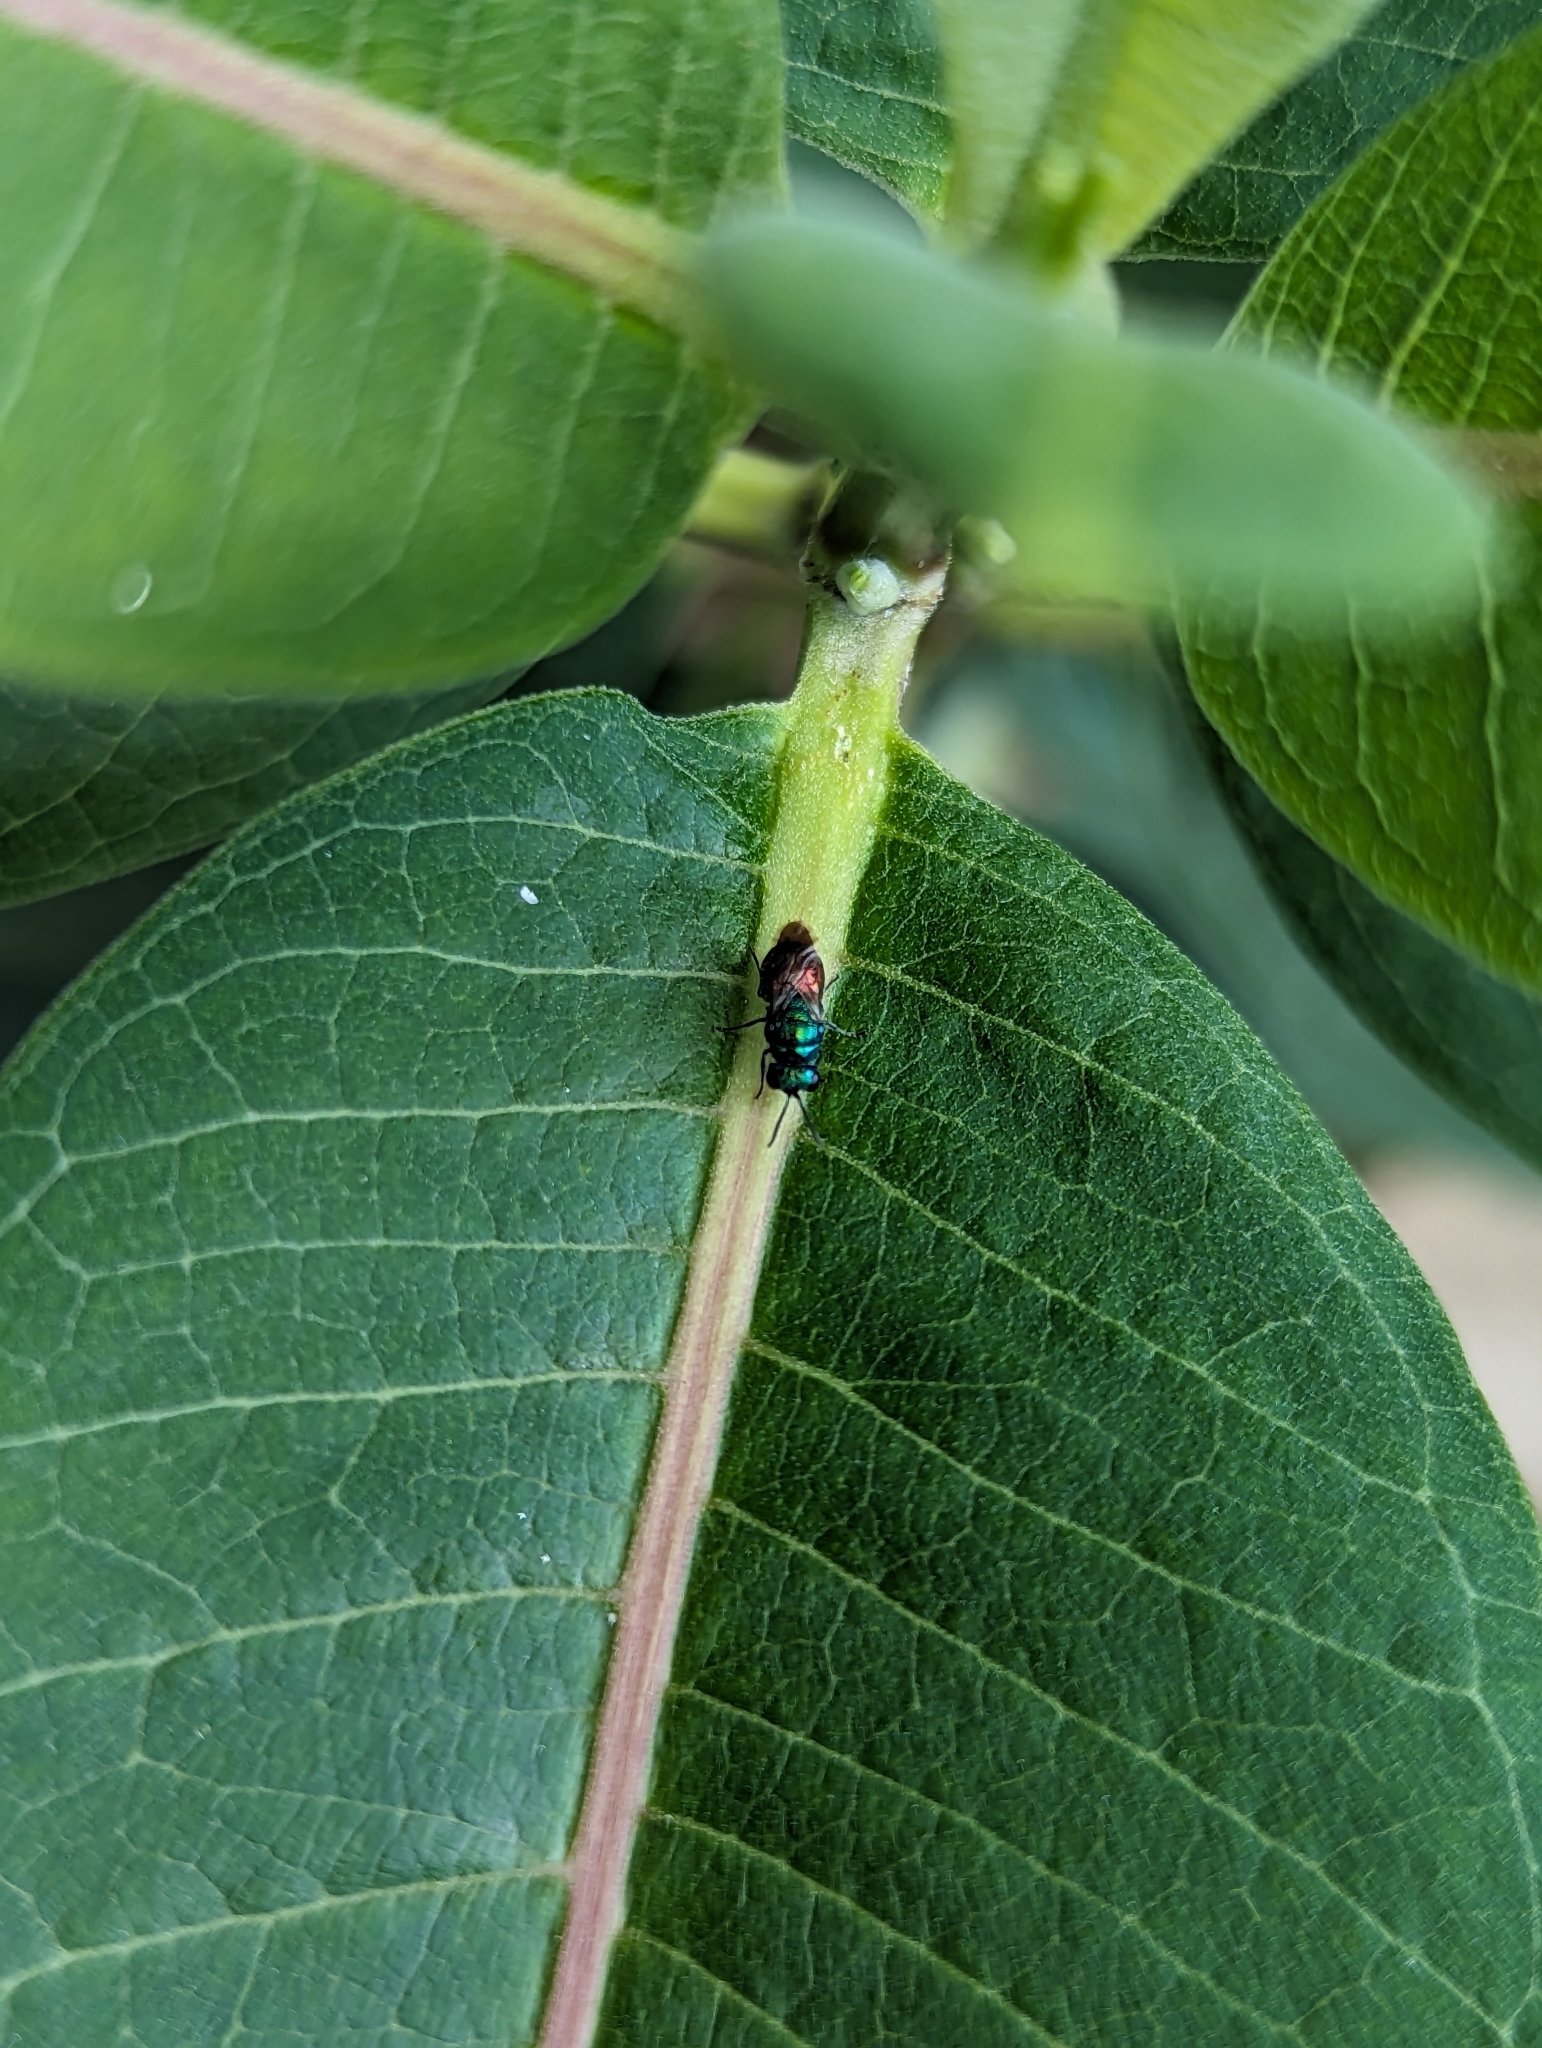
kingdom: Animalia
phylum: Arthropoda
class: Insecta
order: Hymenoptera
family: Chrysididae
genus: Pseudomalus
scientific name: Pseudomalus auratus
